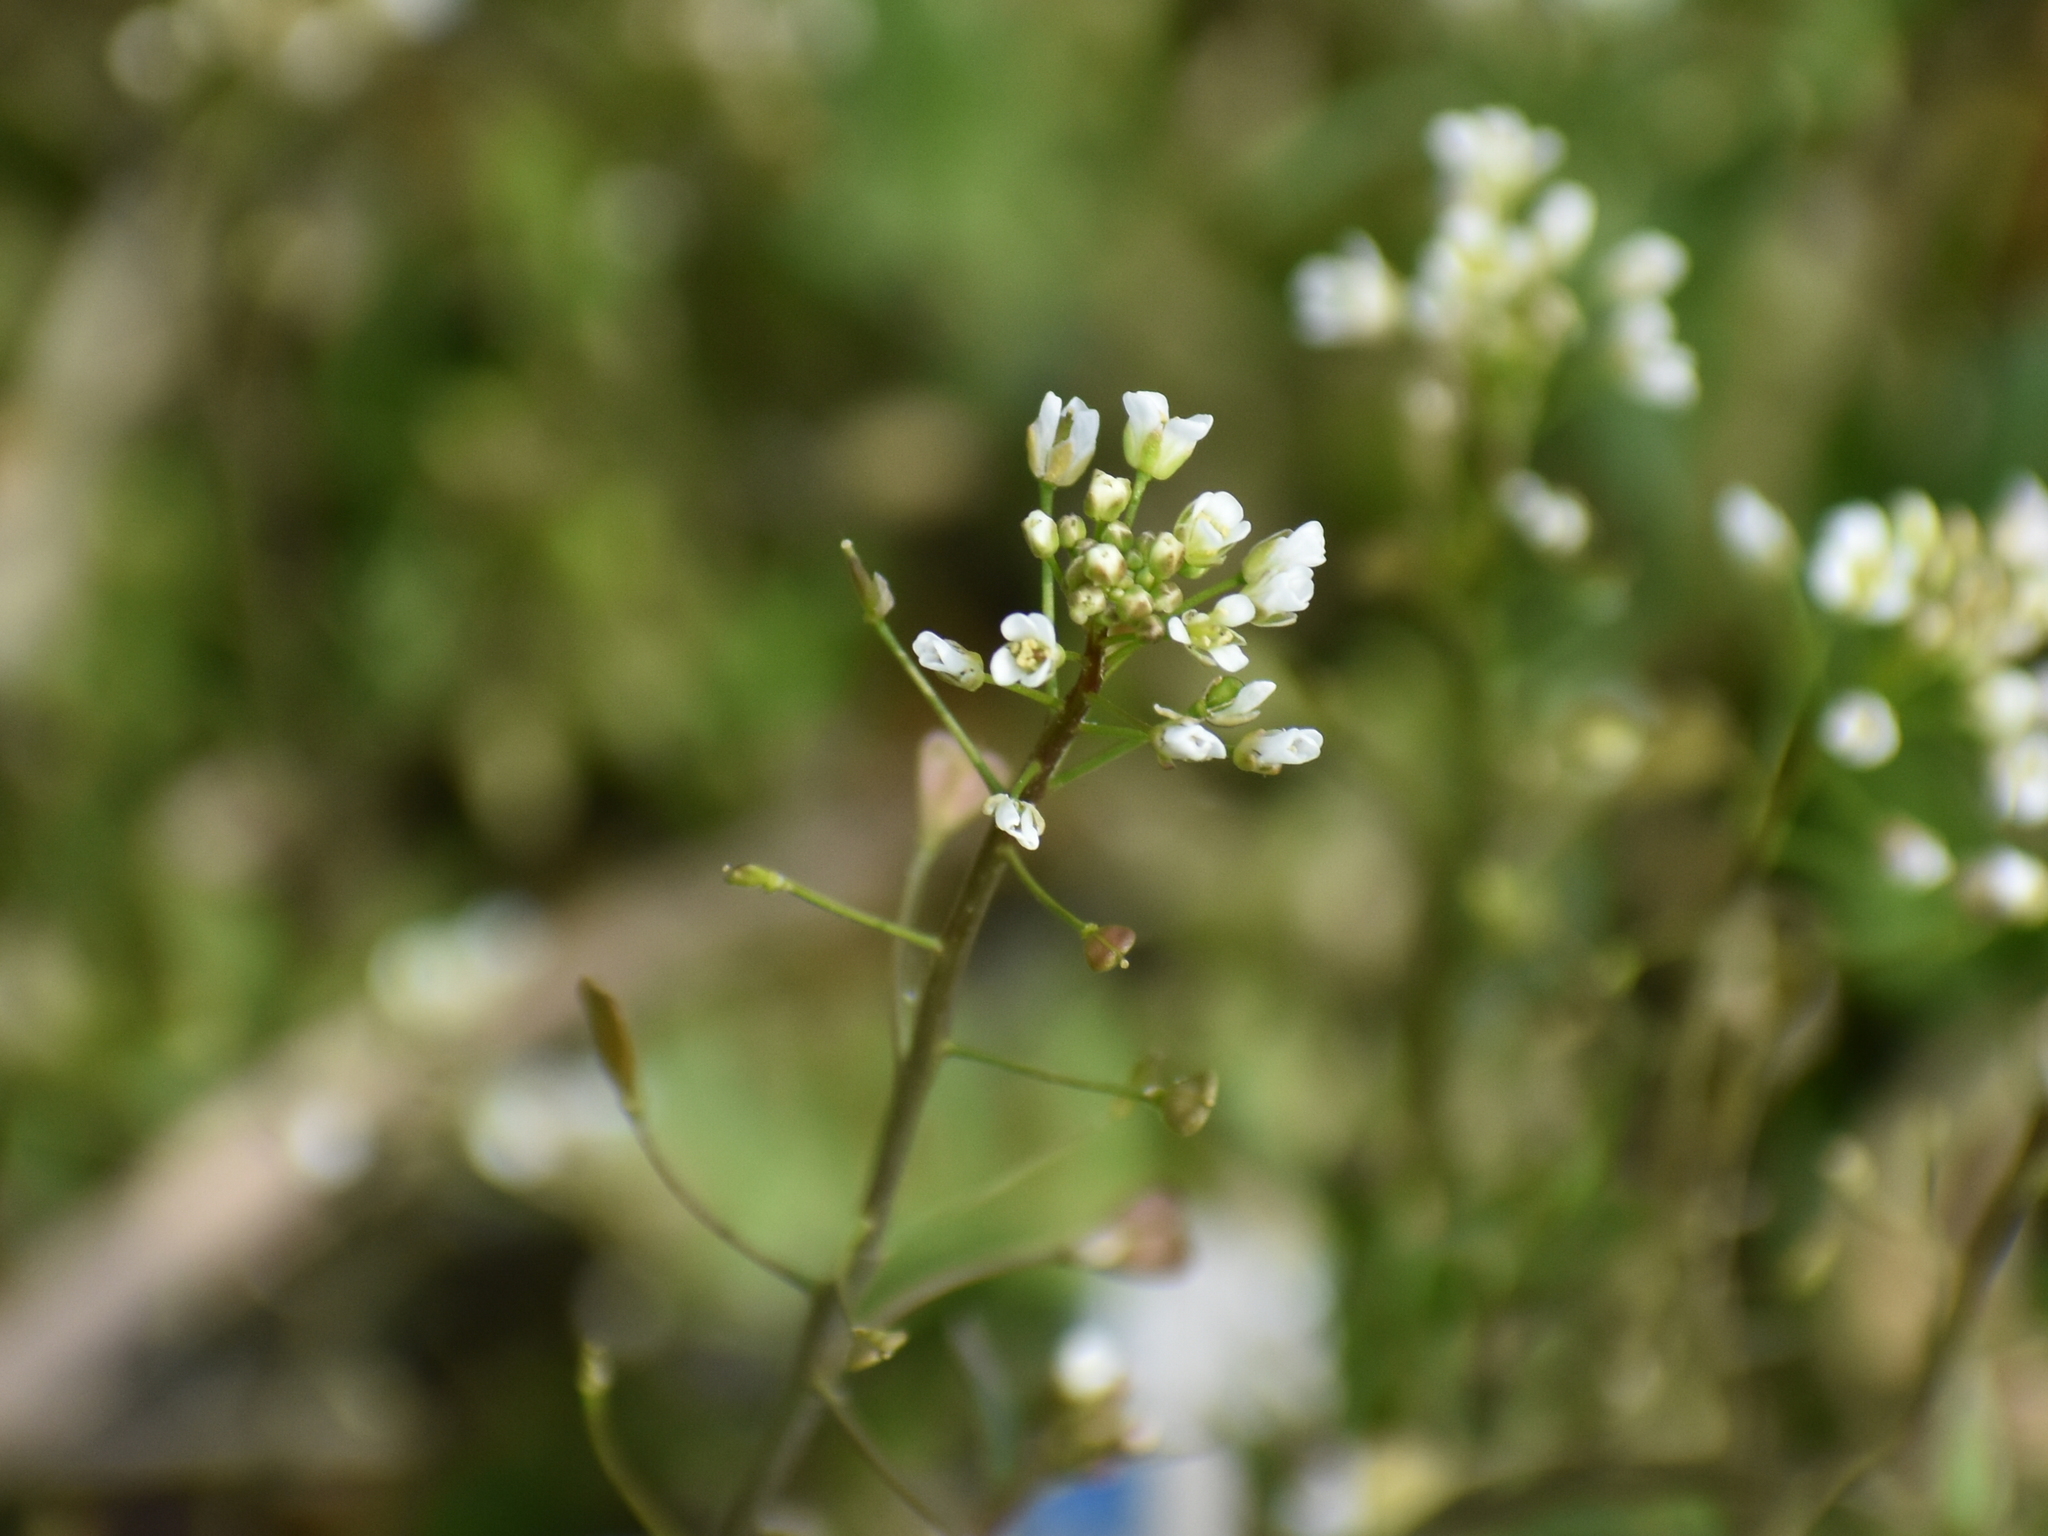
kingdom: Plantae
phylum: Tracheophyta
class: Magnoliopsida
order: Brassicales
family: Brassicaceae
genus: Capsella
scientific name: Capsella bursa-pastoris
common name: Shepherd's purse
